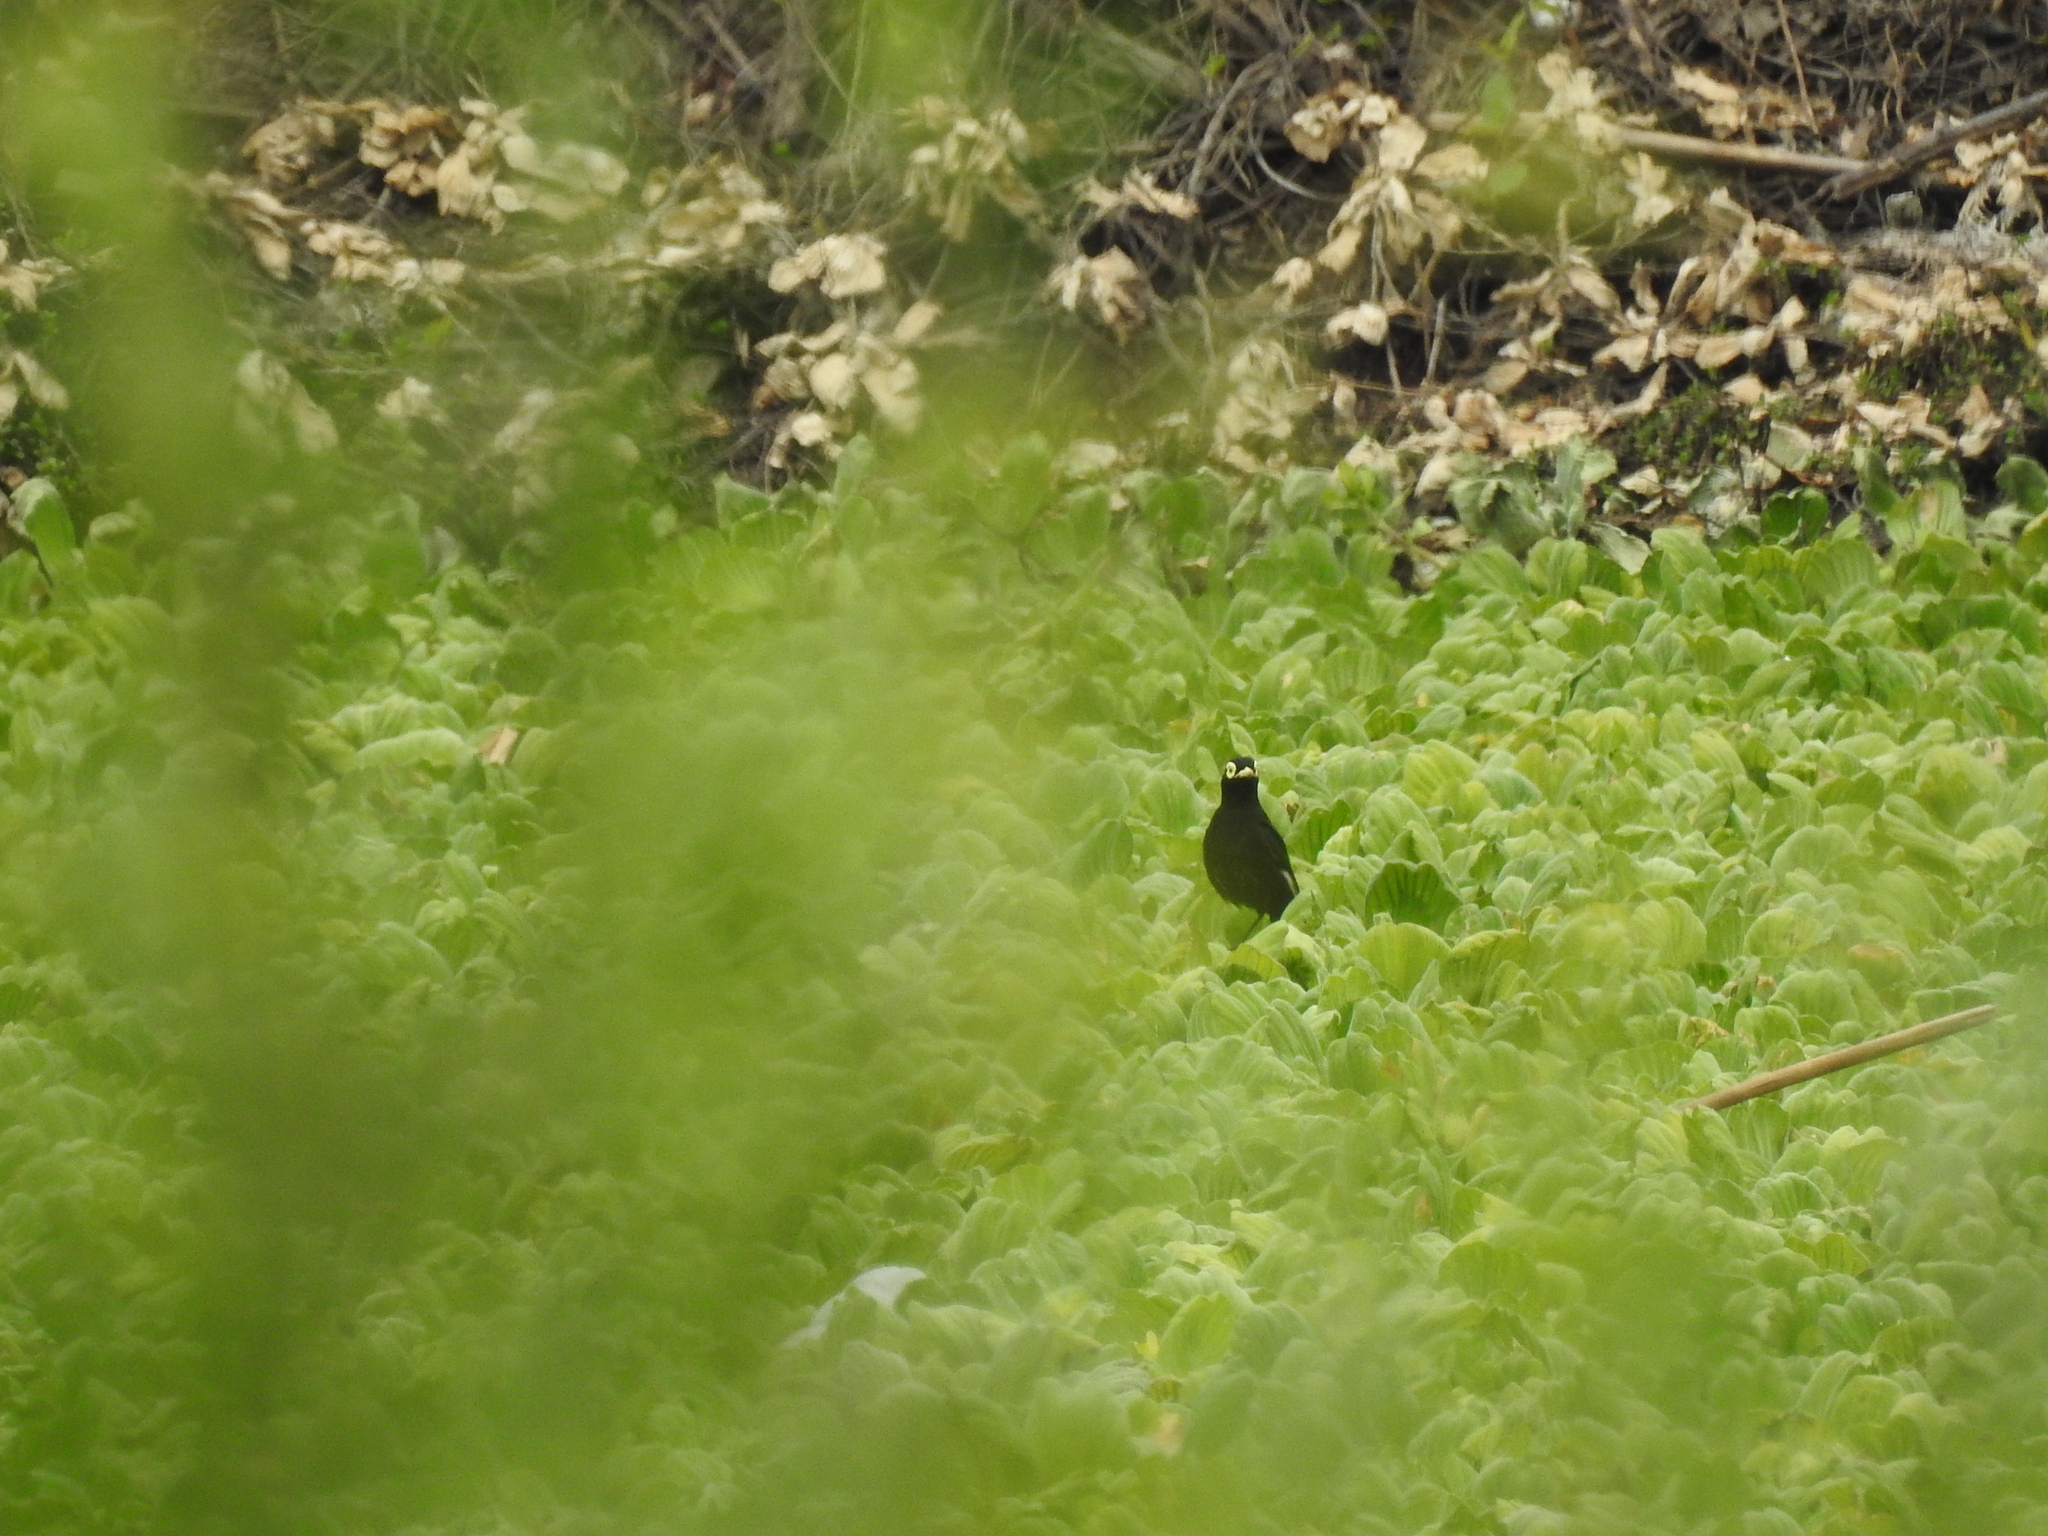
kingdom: Animalia
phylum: Chordata
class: Aves
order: Passeriformes
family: Tyrannidae
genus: Hymenops
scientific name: Hymenops perspicillatus
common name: Spectacled tyrant
